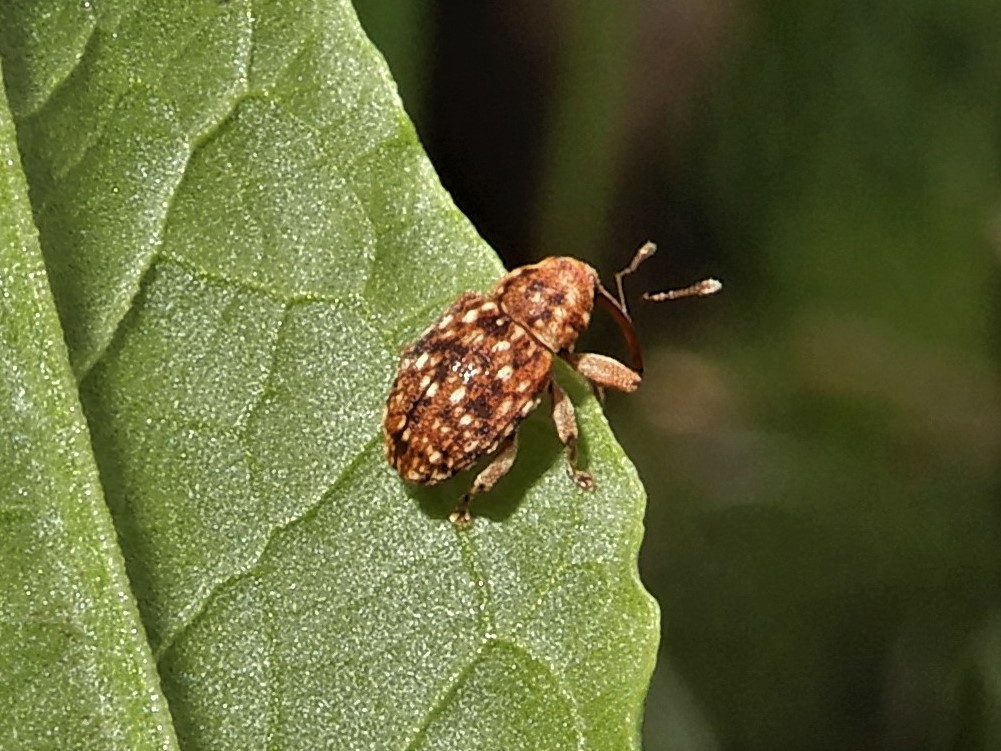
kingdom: Animalia
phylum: Arthropoda
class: Insecta
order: Coleoptera
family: Curculionidae
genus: Storeus
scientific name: Storeus albosignatus
